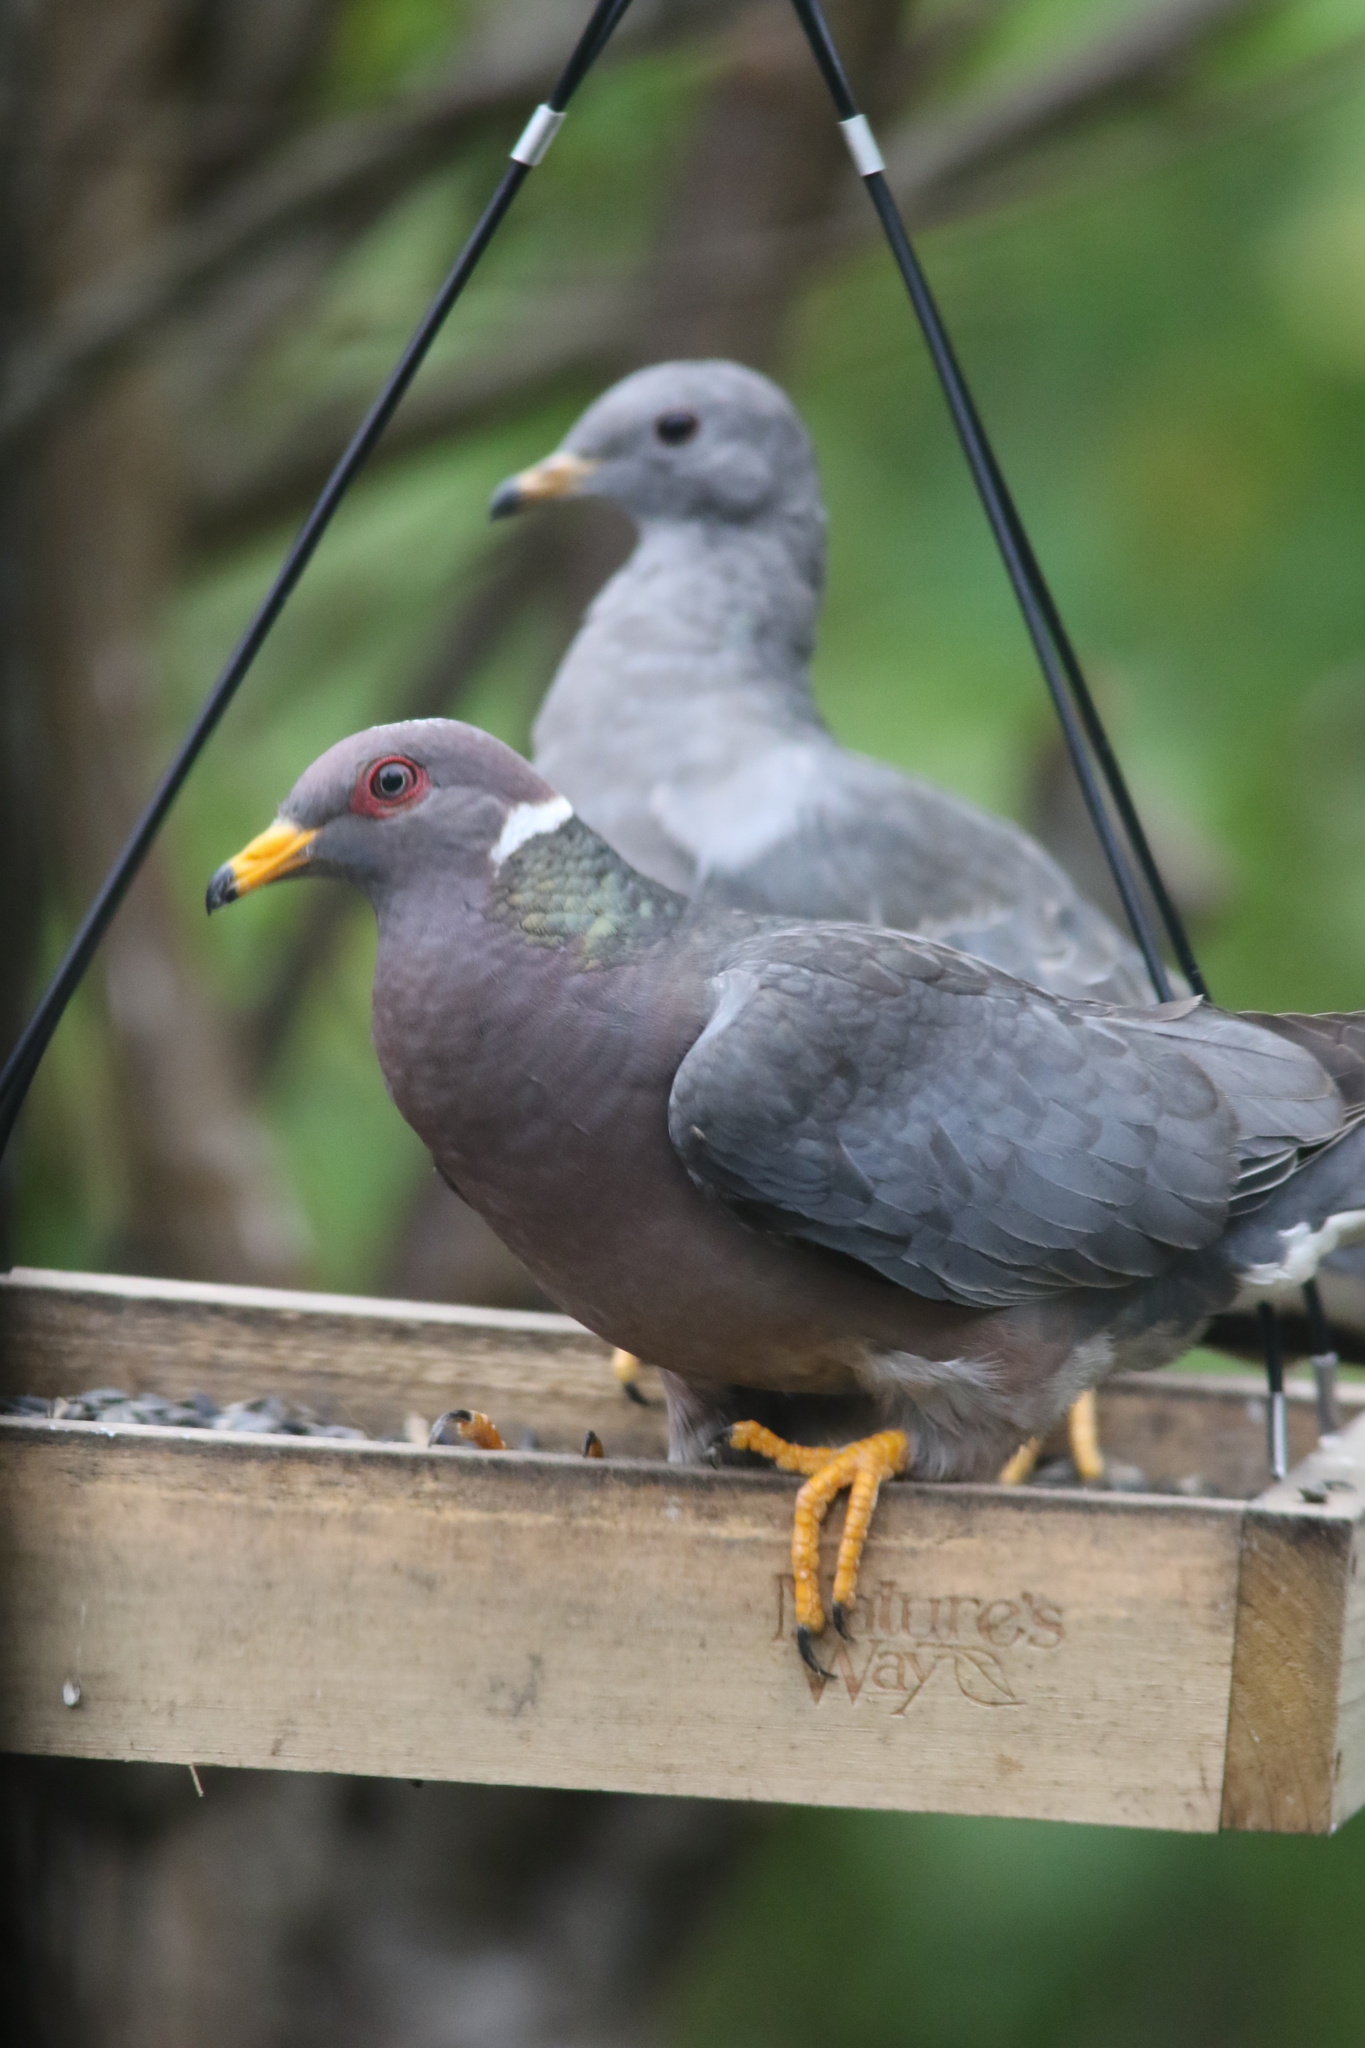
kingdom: Animalia
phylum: Chordata
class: Aves
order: Columbiformes
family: Columbidae
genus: Patagioenas
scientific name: Patagioenas fasciata
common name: Band-tailed pigeon
